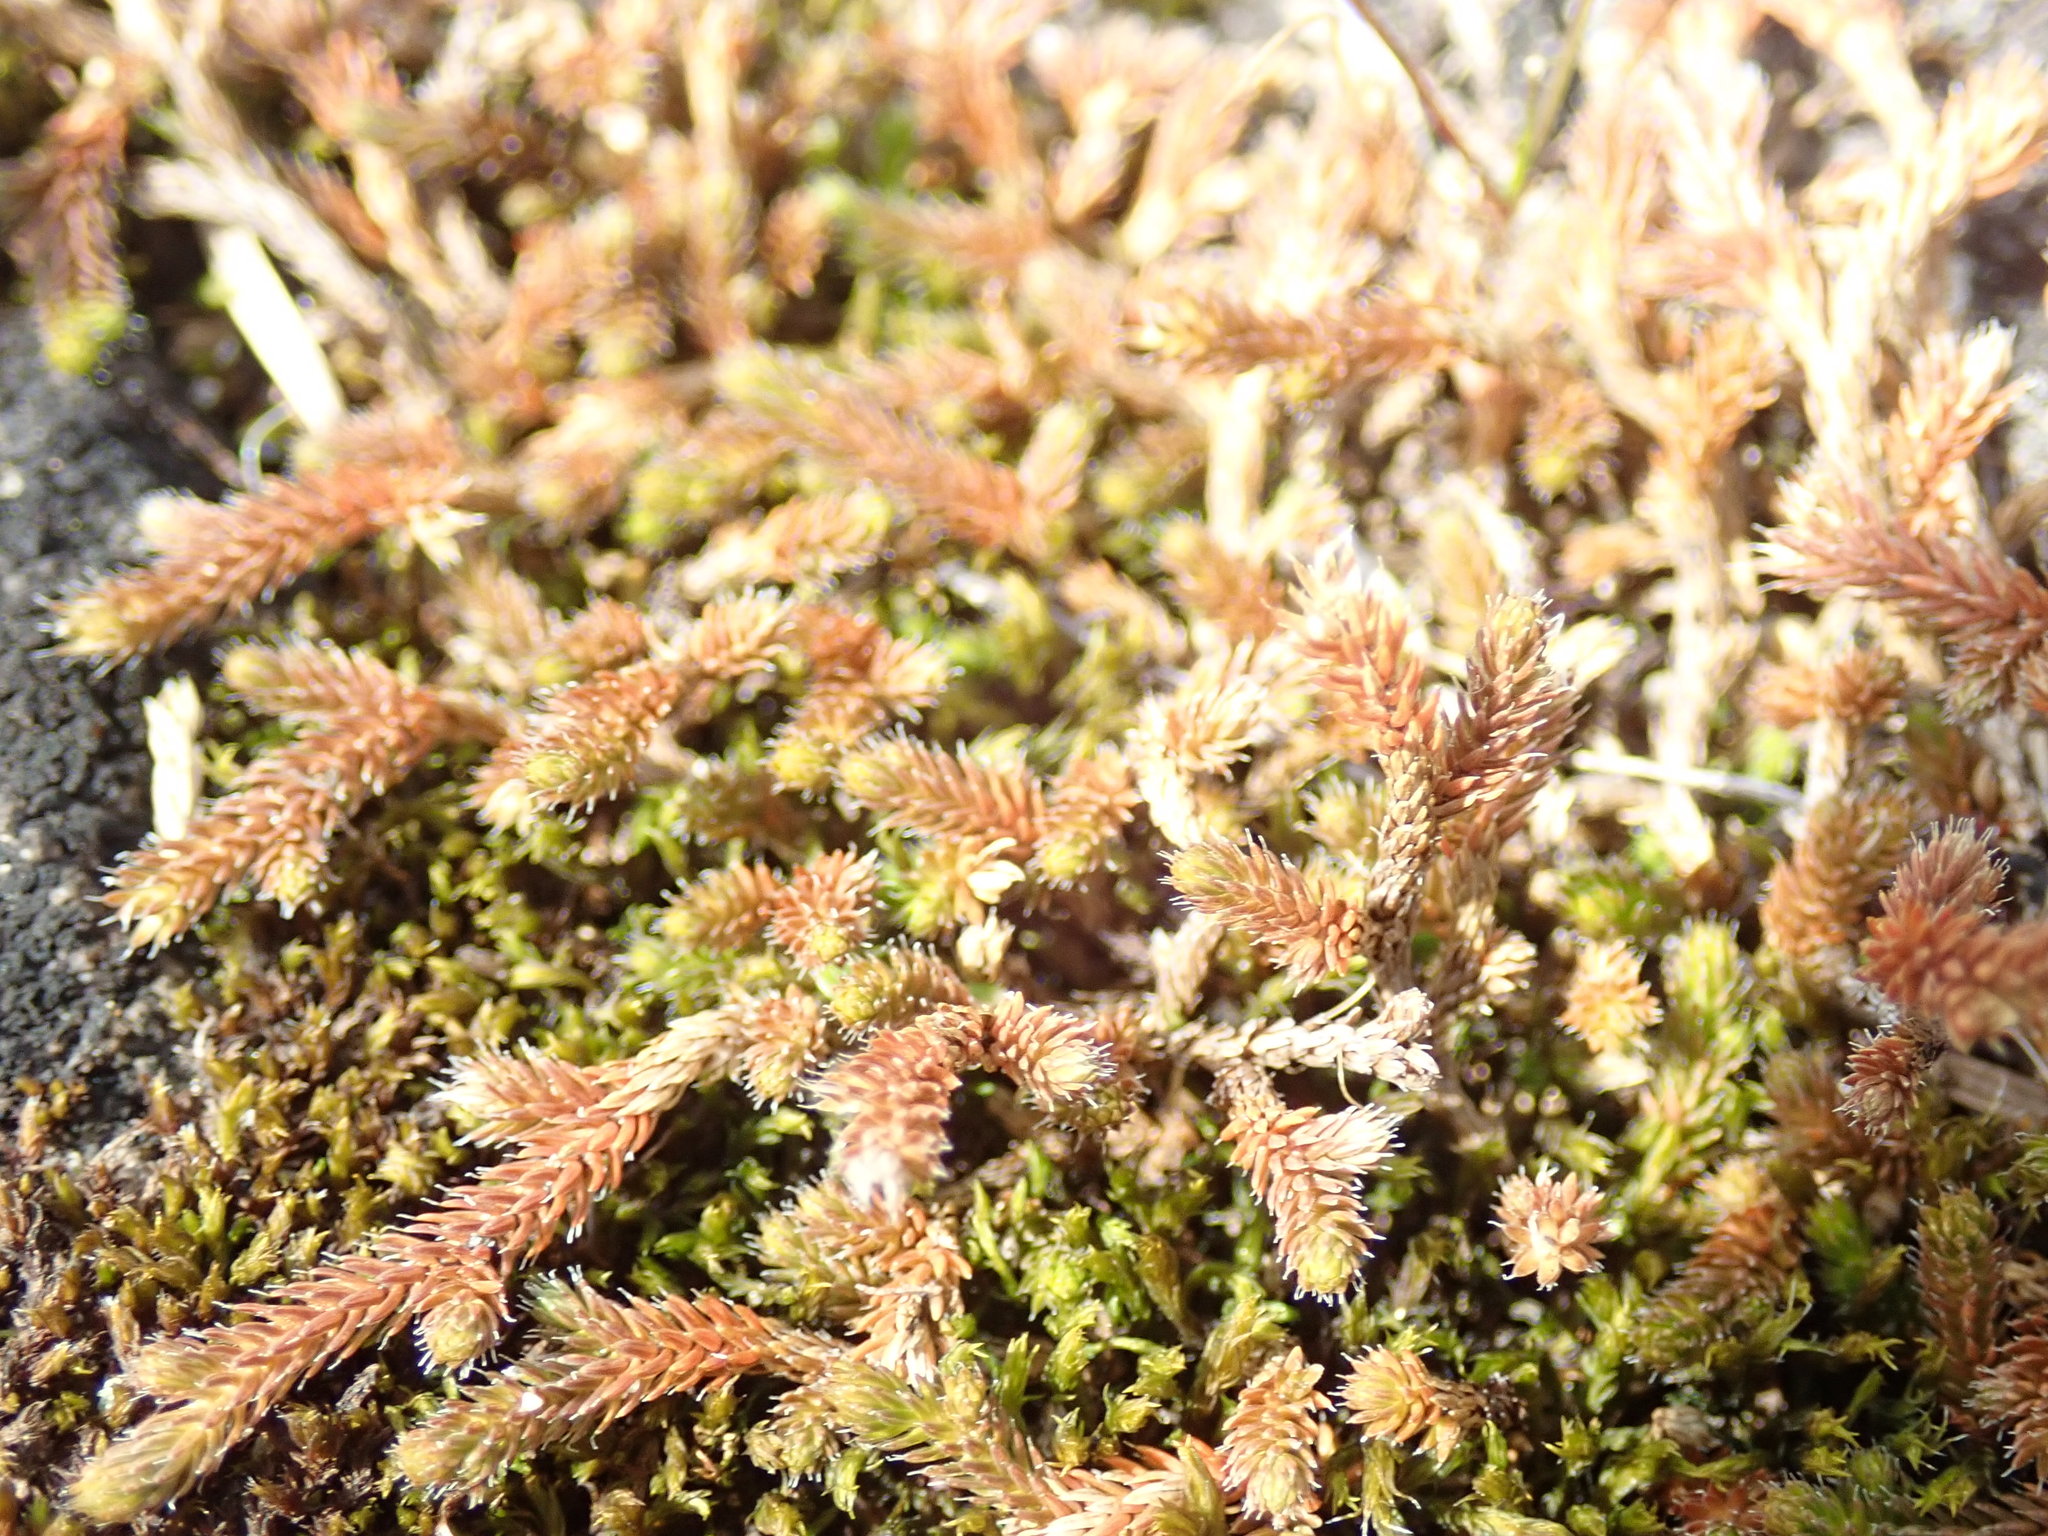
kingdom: Plantae
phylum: Tracheophyta
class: Lycopodiopsida
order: Selaginellales
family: Selaginellaceae
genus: Selaginella
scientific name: Selaginella wallacei
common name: Wallace's selaginella
